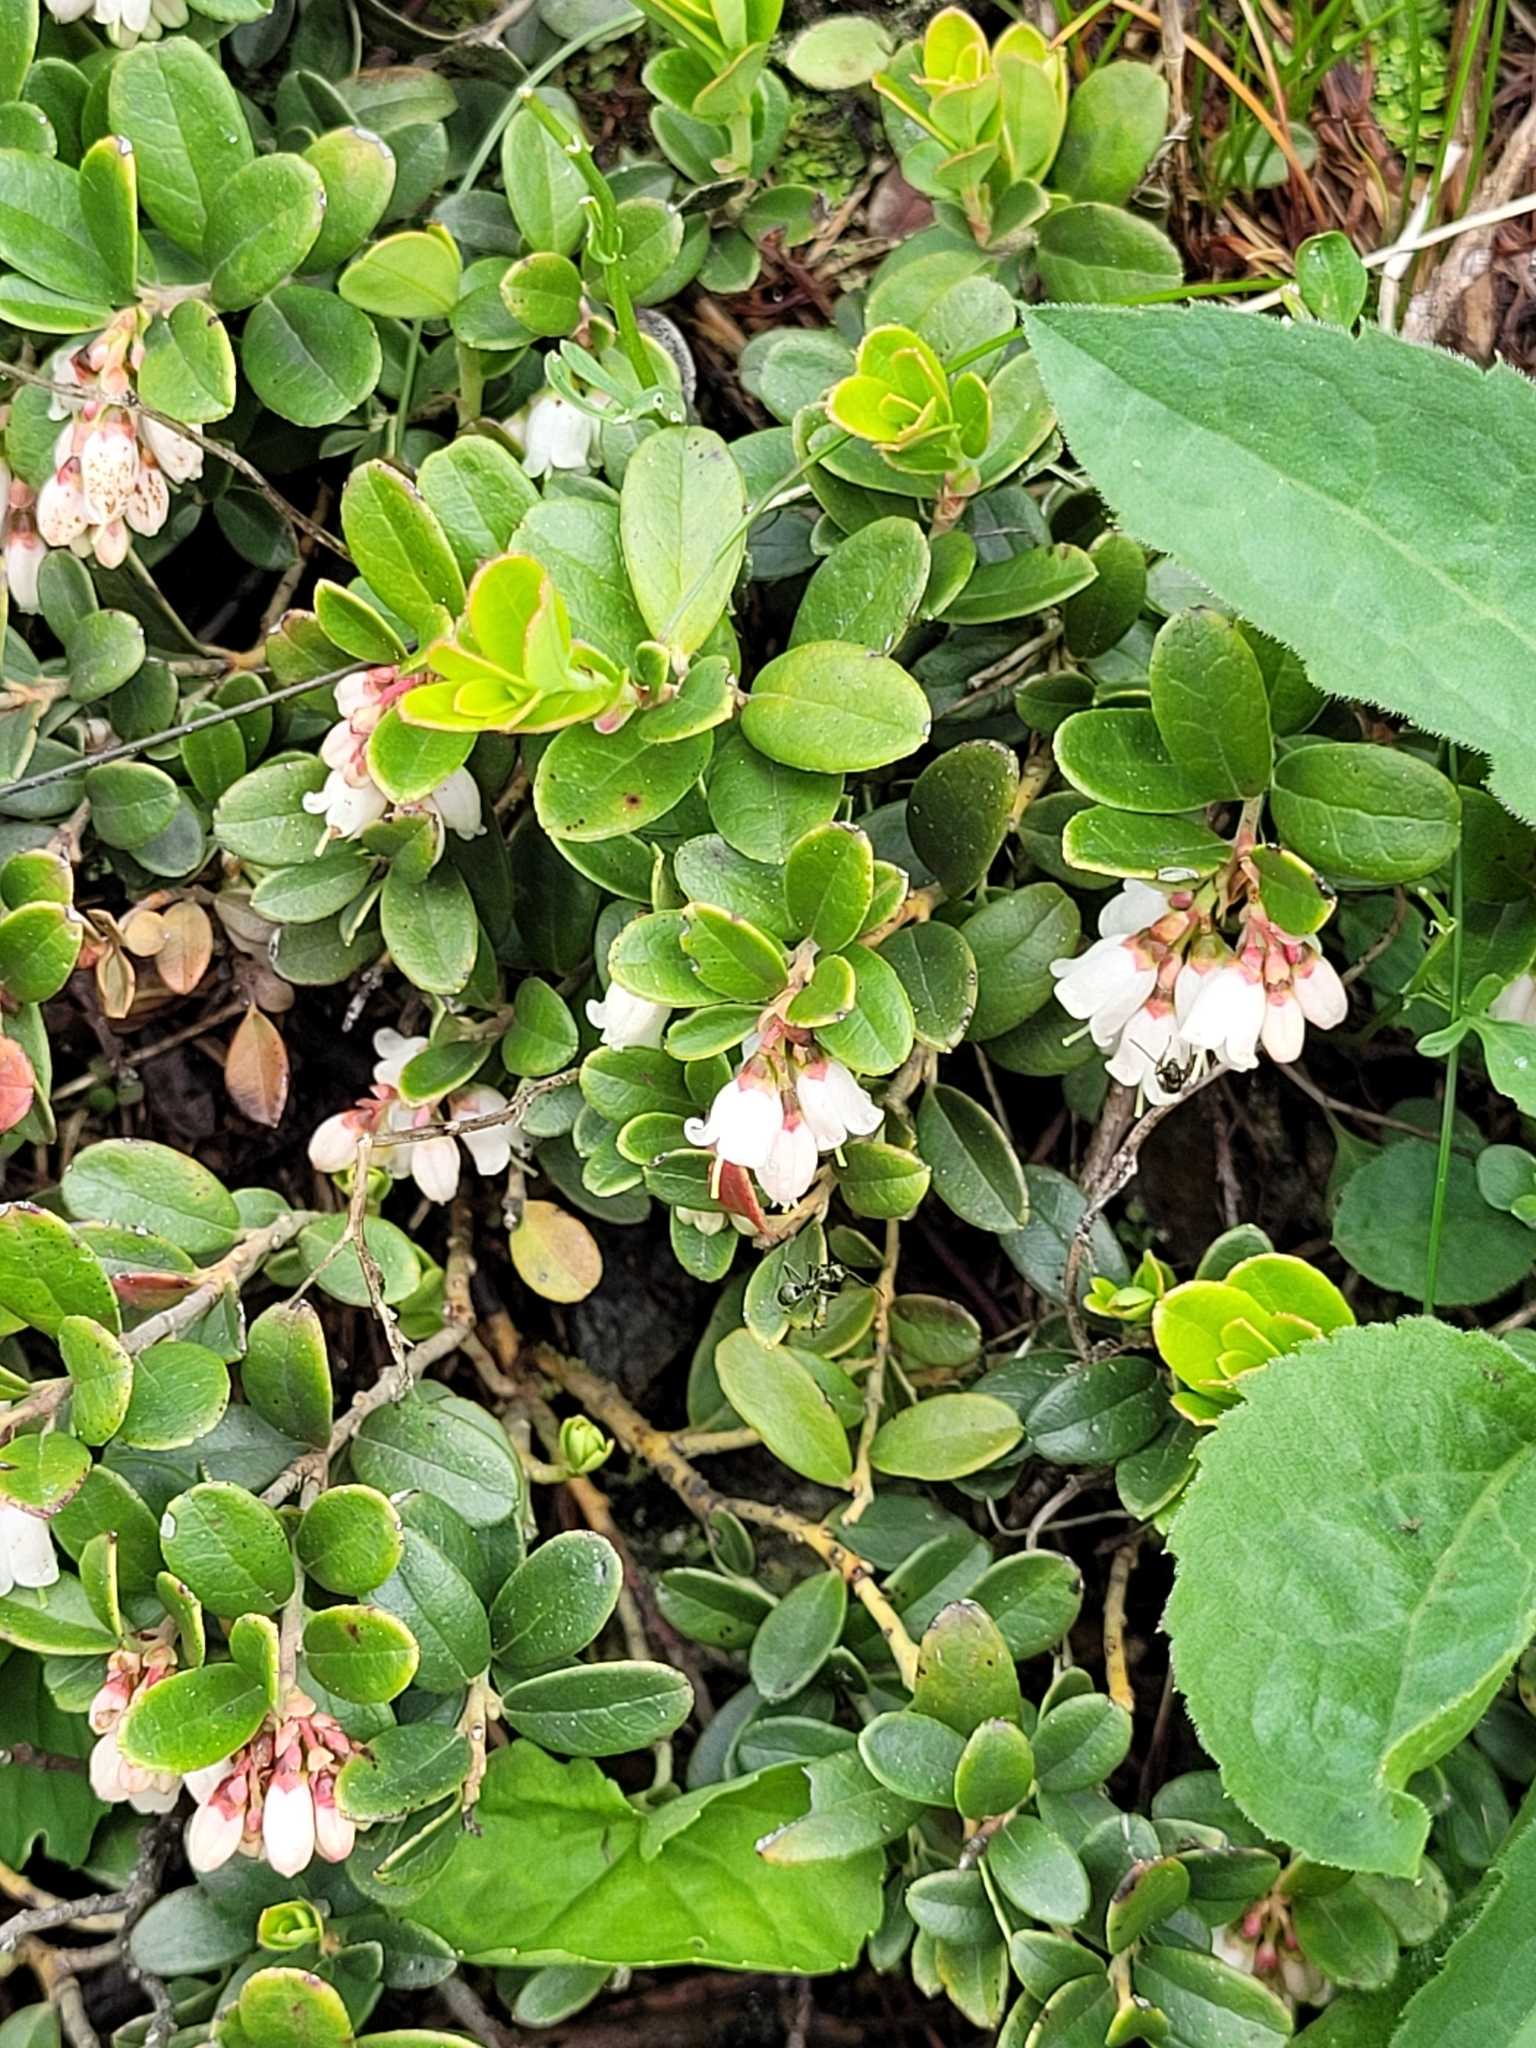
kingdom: Plantae
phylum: Tracheophyta
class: Magnoliopsida
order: Ericales
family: Ericaceae
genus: Vaccinium
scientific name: Vaccinium vitis-idaea
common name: Cowberry
